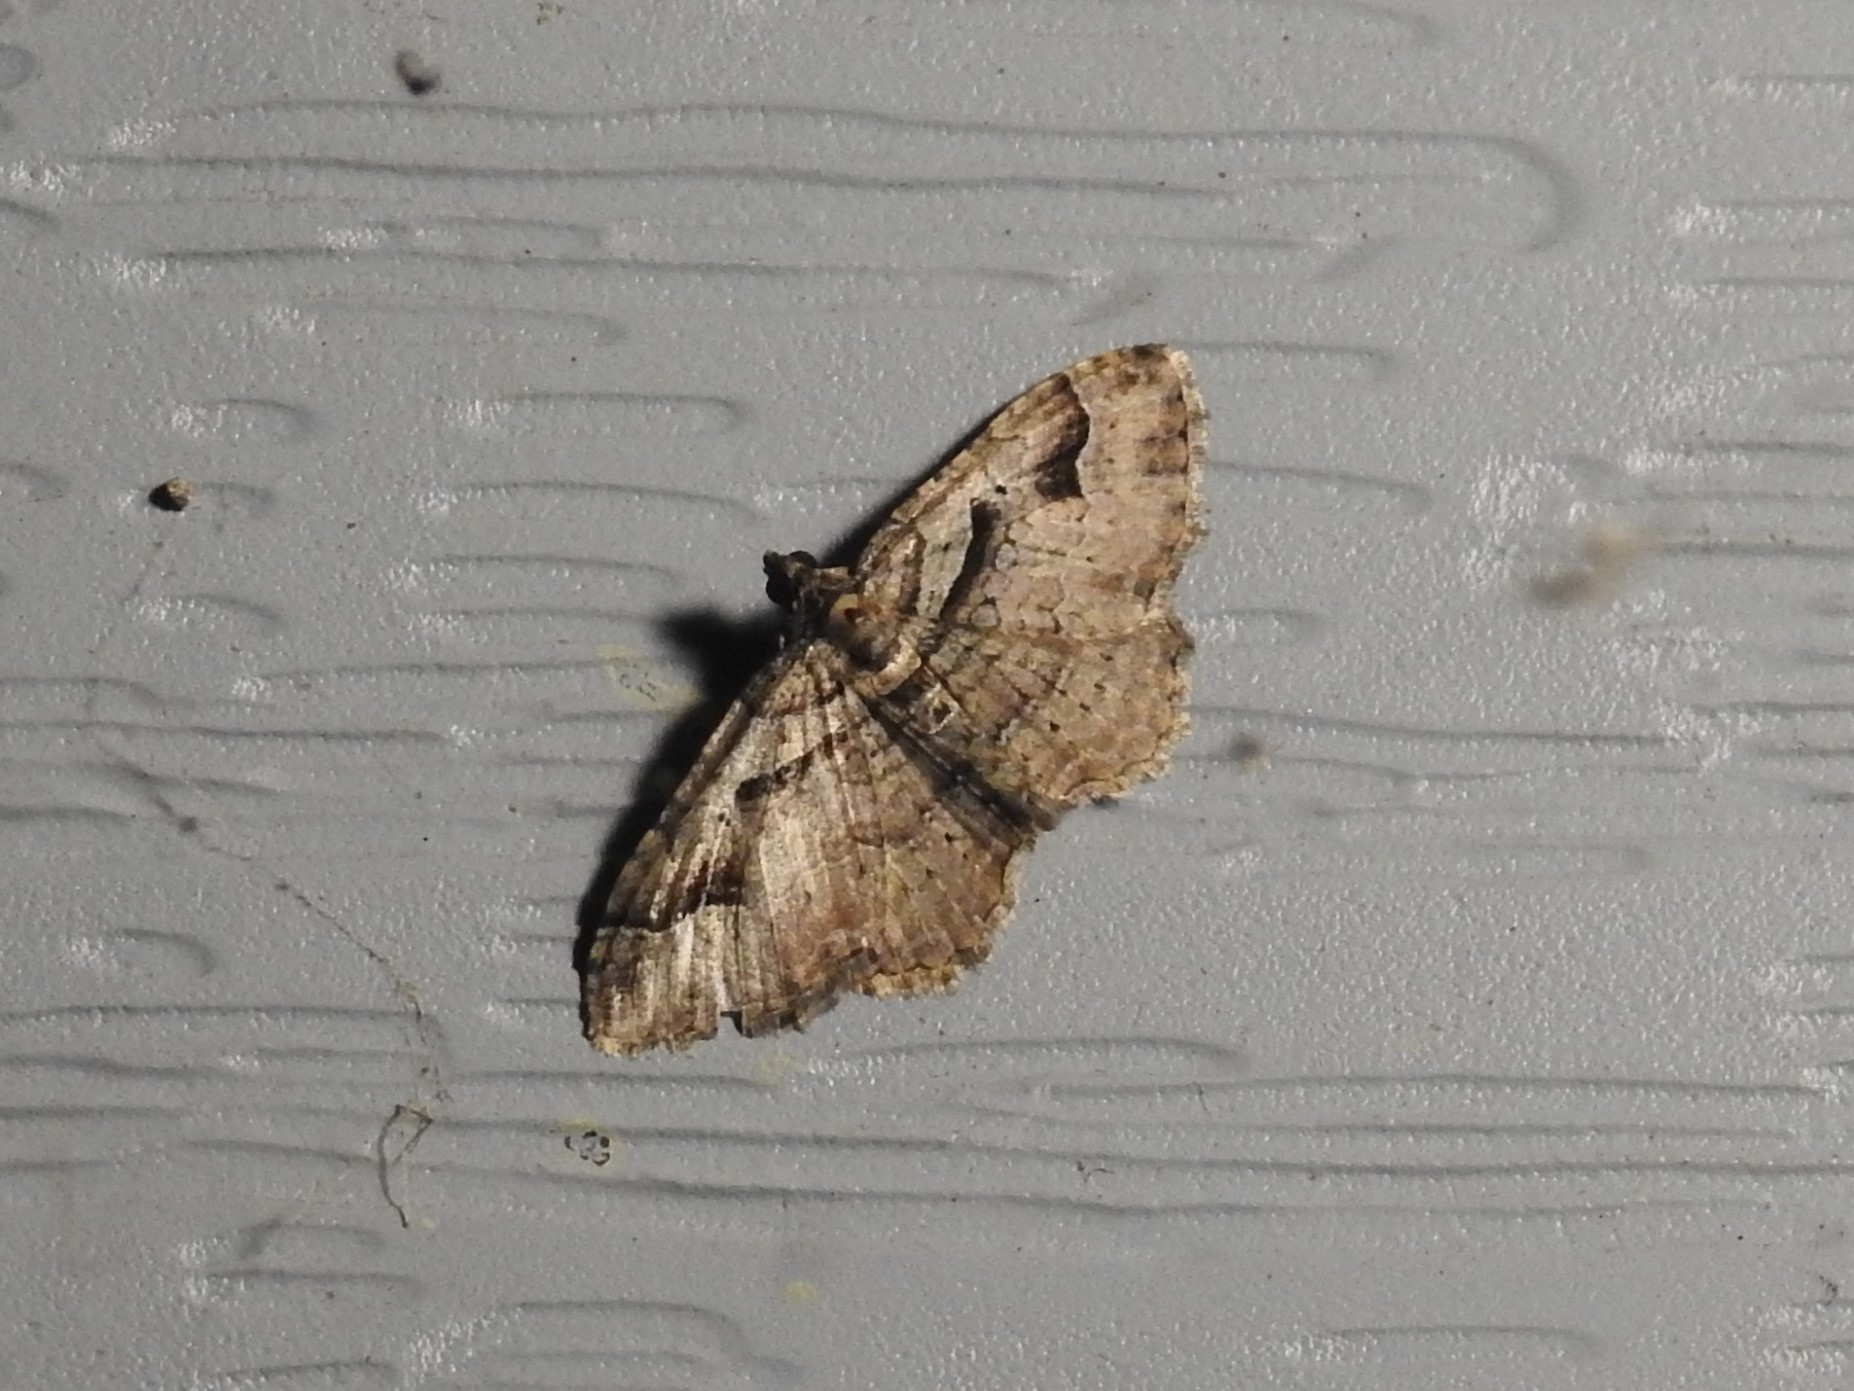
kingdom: Animalia
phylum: Arthropoda
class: Insecta
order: Lepidoptera
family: Geometridae
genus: Costaconvexa
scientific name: Costaconvexa centrostrigaria
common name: Bent-line carpet
